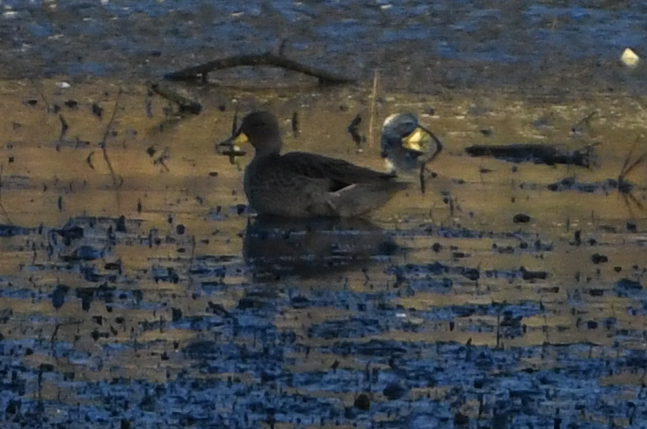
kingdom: Animalia
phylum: Chordata
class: Aves
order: Anseriformes
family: Anatidae
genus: Anas
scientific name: Anas flavirostris
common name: Yellow-billed teal
